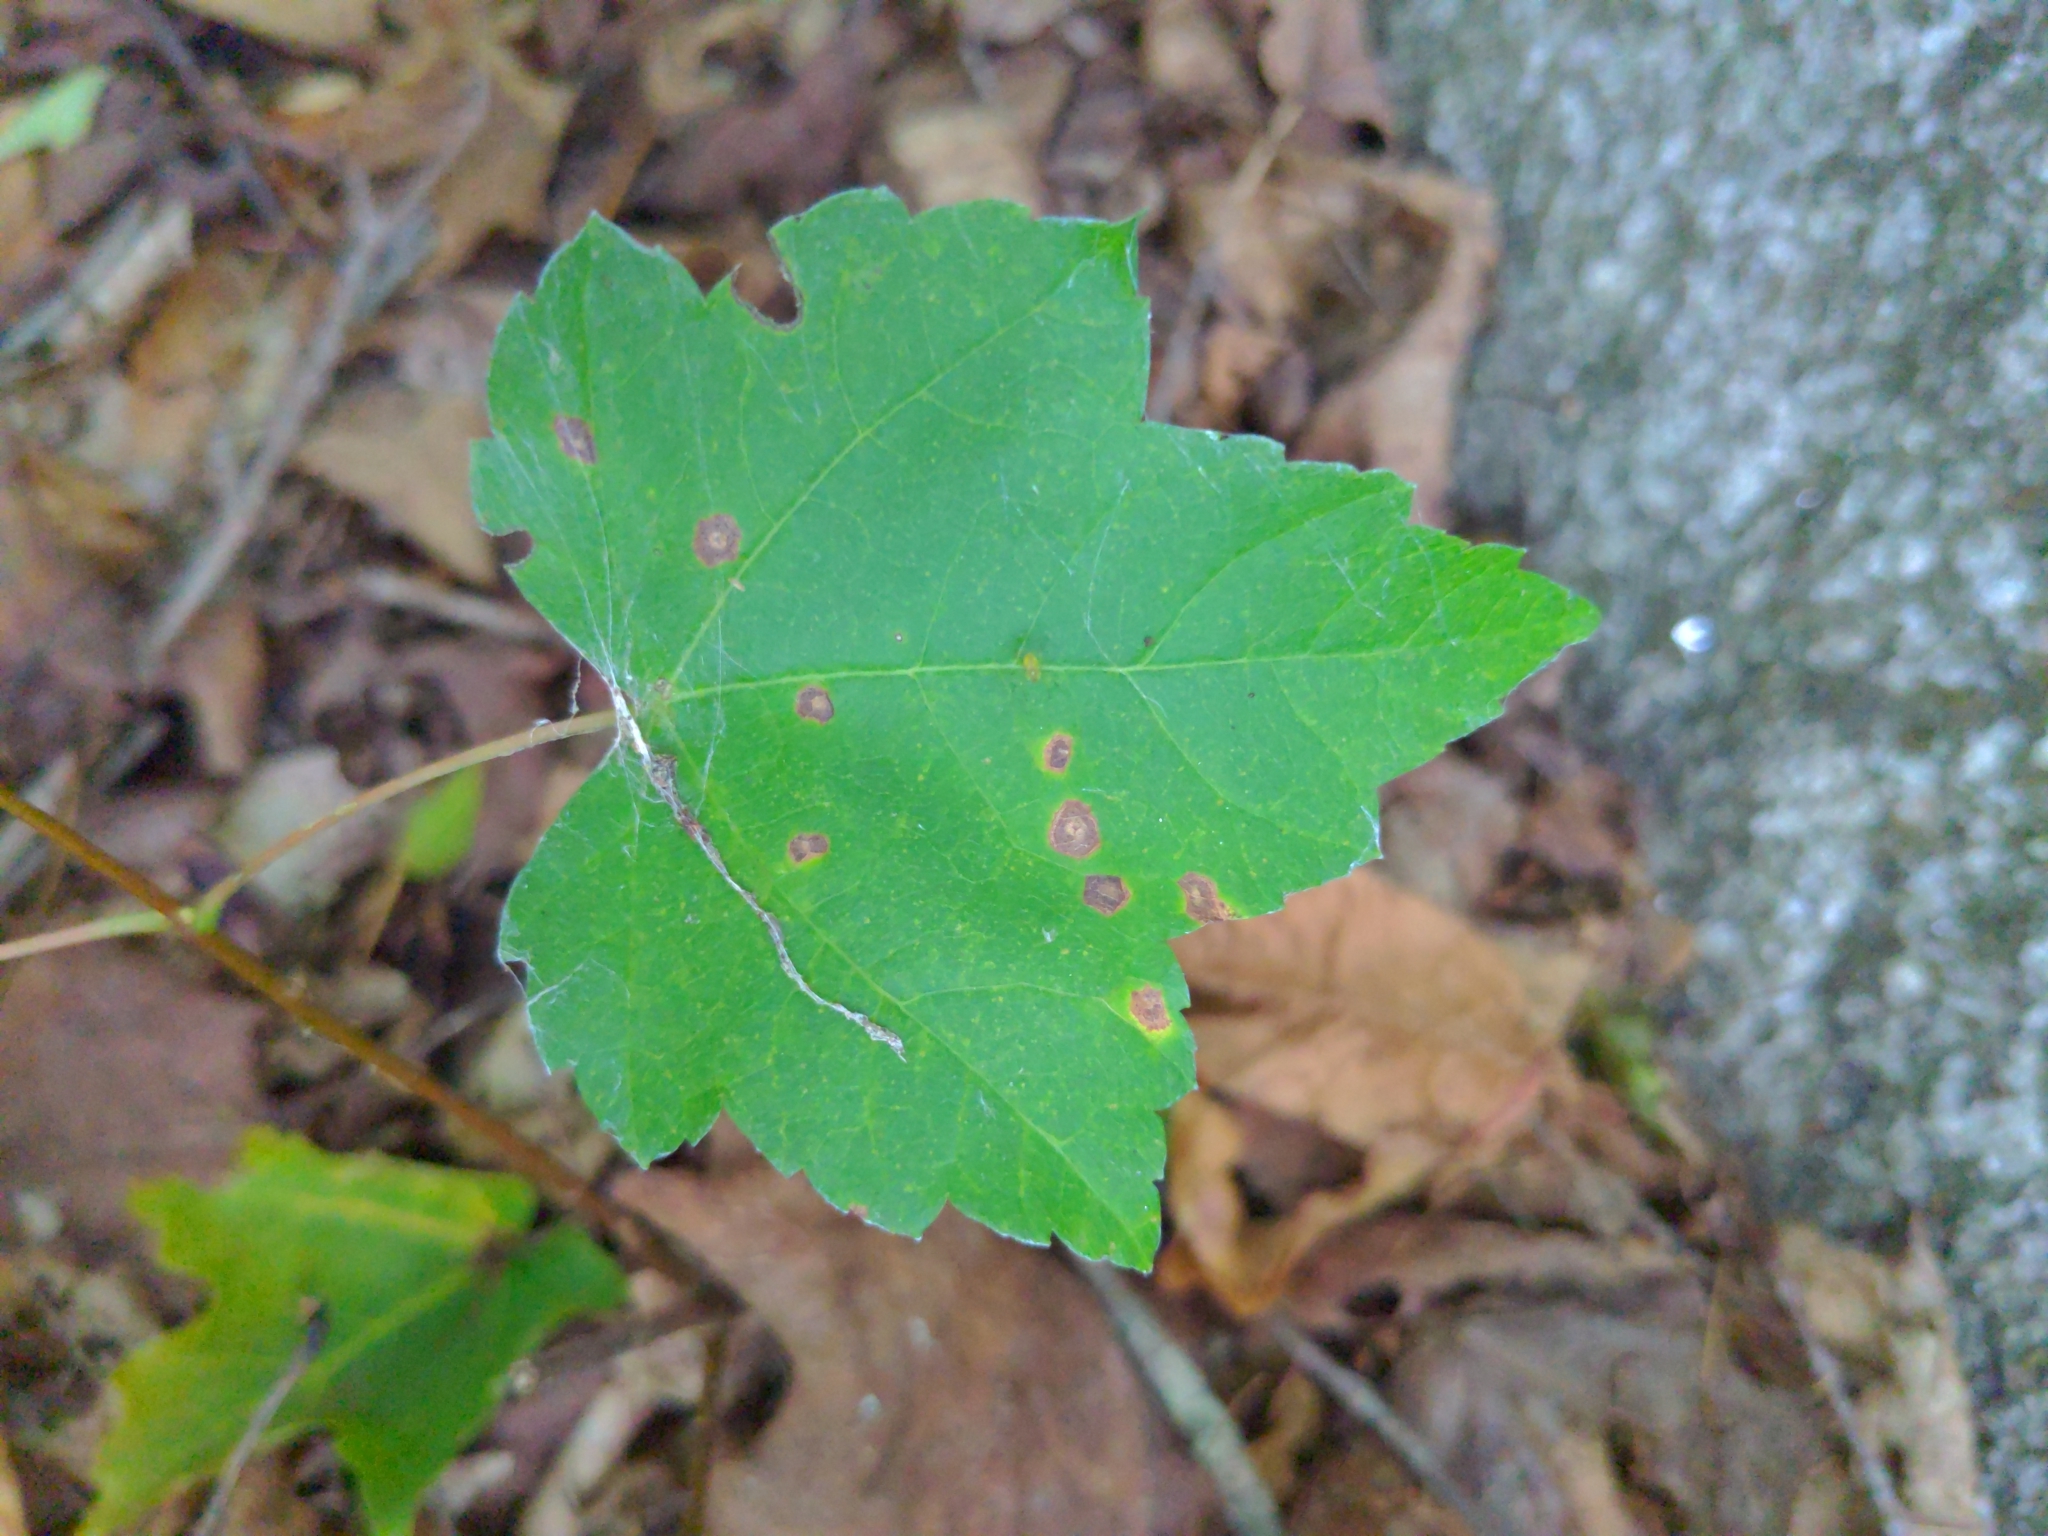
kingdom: Plantae
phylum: Tracheophyta
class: Magnoliopsida
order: Sapindales
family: Sapindaceae
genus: Acer
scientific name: Acer rubrum
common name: Red maple
